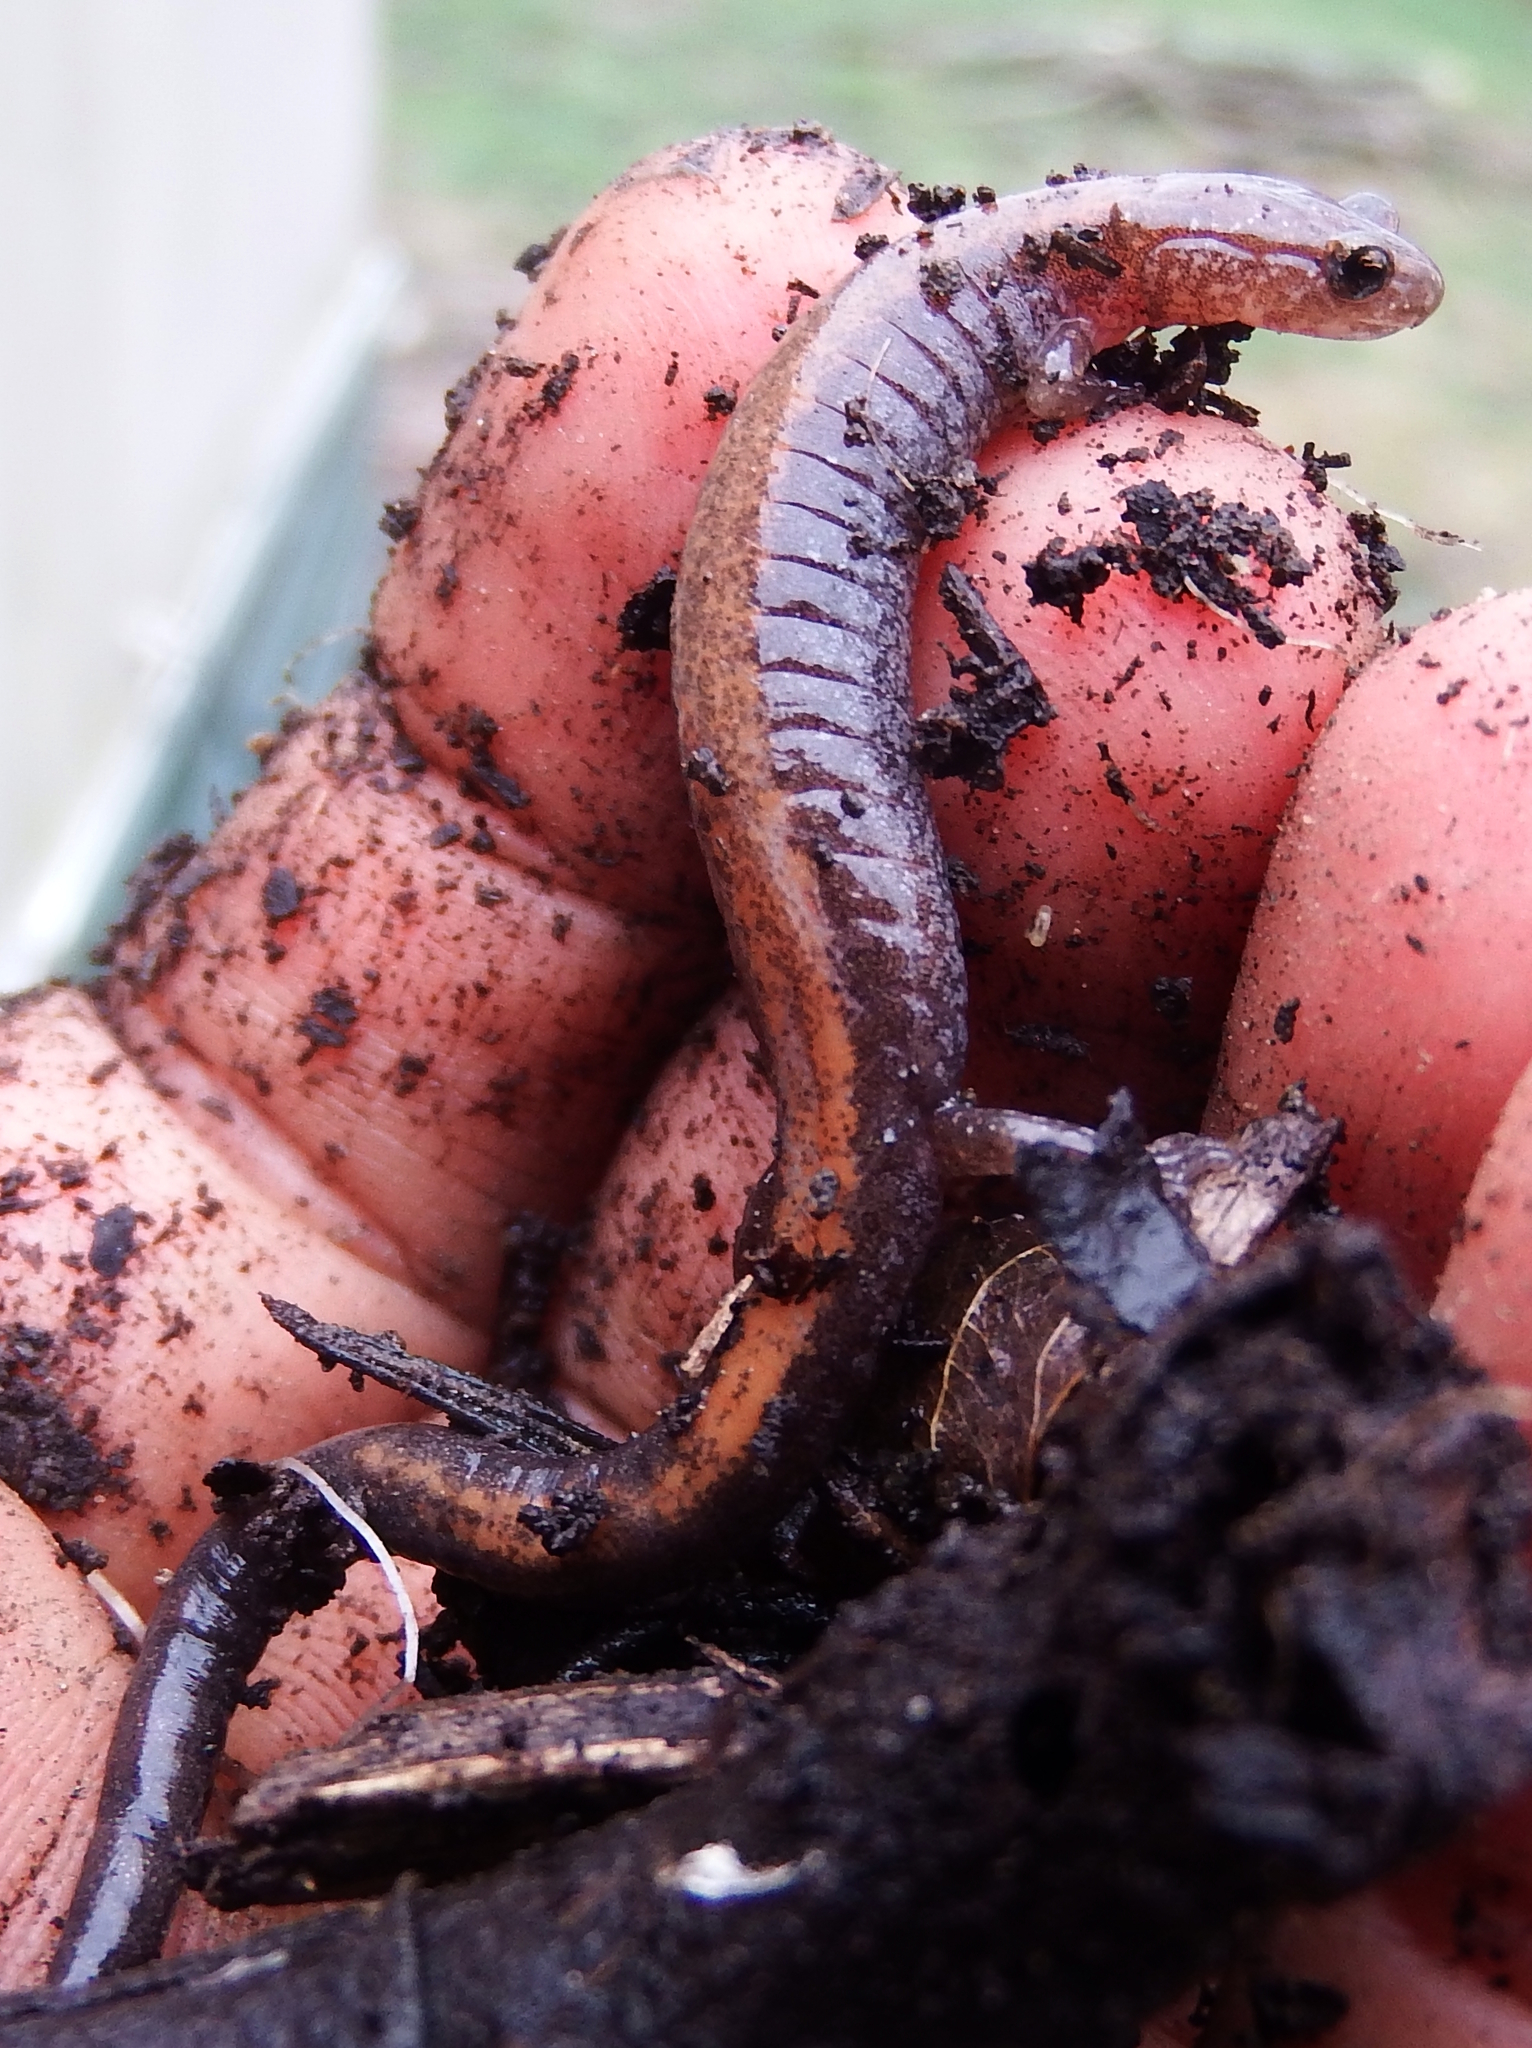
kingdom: Animalia
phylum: Chordata
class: Amphibia
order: Caudata
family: Plethodontidae
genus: Plethodon
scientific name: Plethodon cinereus
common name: Redback salamander
